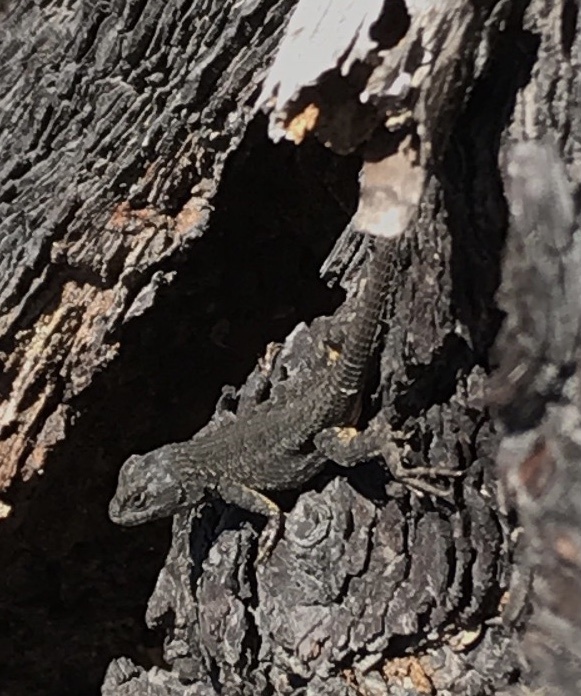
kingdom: Animalia
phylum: Chordata
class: Squamata
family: Phrynosomatidae
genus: Sceloporus
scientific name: Sceloporus occidentalis
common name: Western fence lizard
